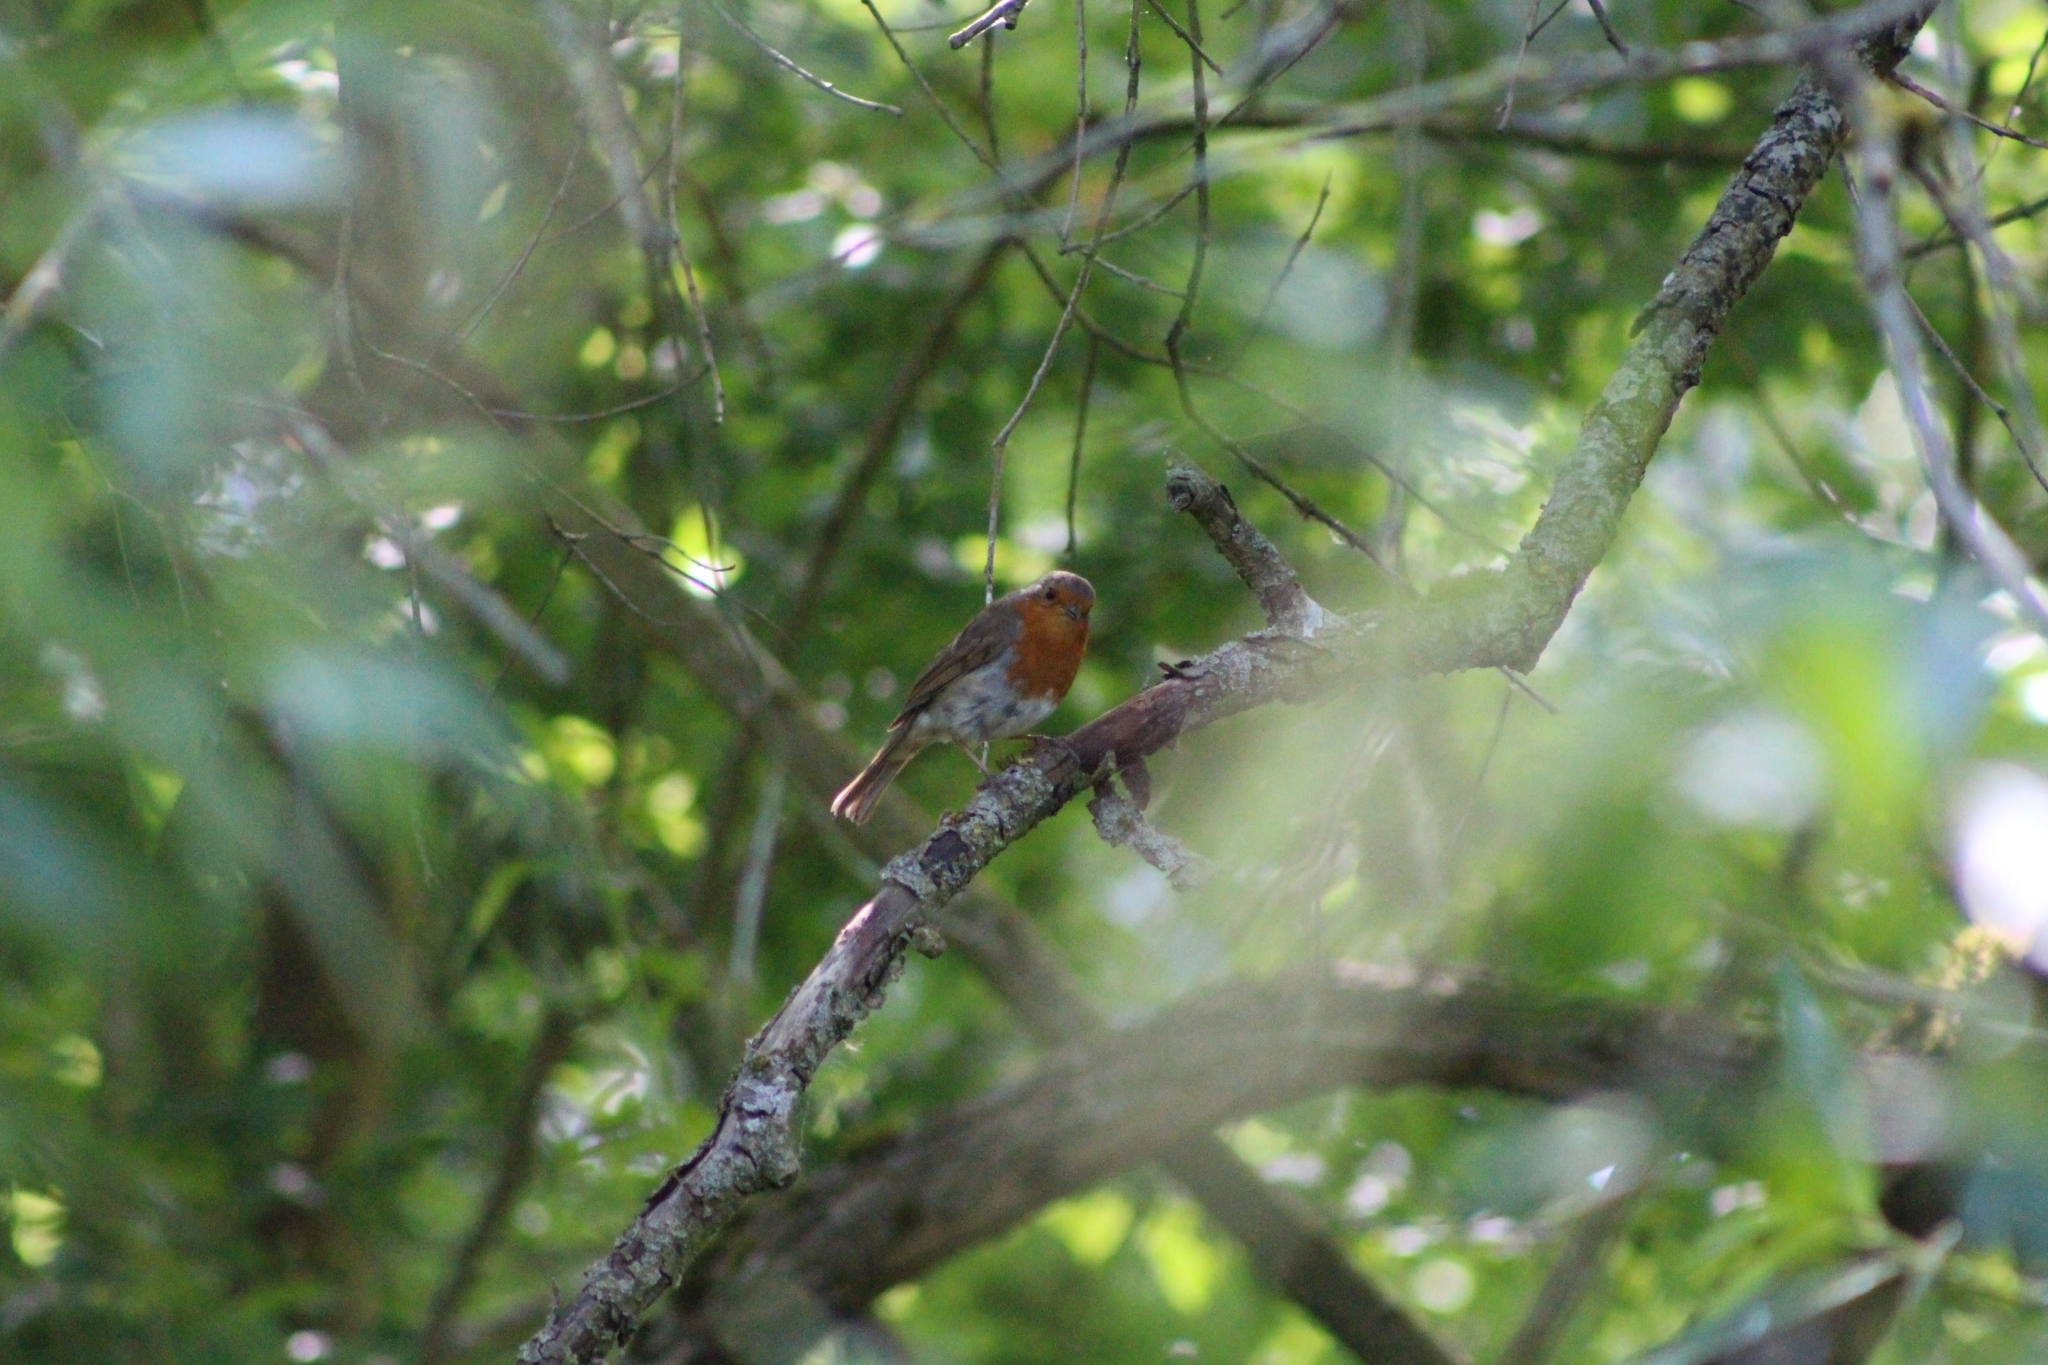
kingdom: Animalia
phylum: Chordata
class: Aves
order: Passeriformes
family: Muscicapidae
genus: Erithacus
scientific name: Erithacus rubecula
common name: European robin
